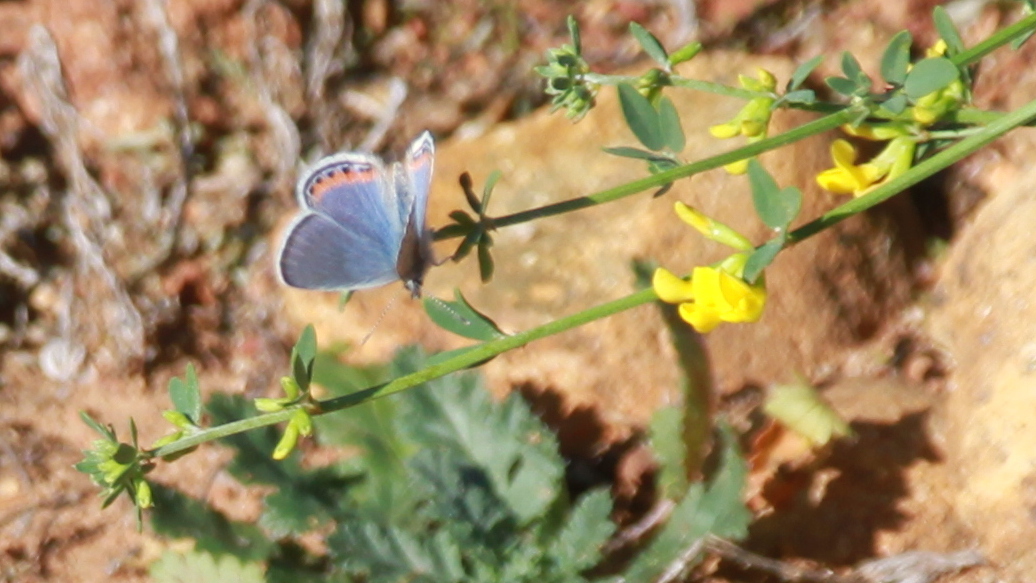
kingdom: Animalia
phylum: Arthropoda
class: Insecta
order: Lepidoptera
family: Lycaenidae
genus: Icaricia
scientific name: Icaricia acmon
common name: Acmon blue
